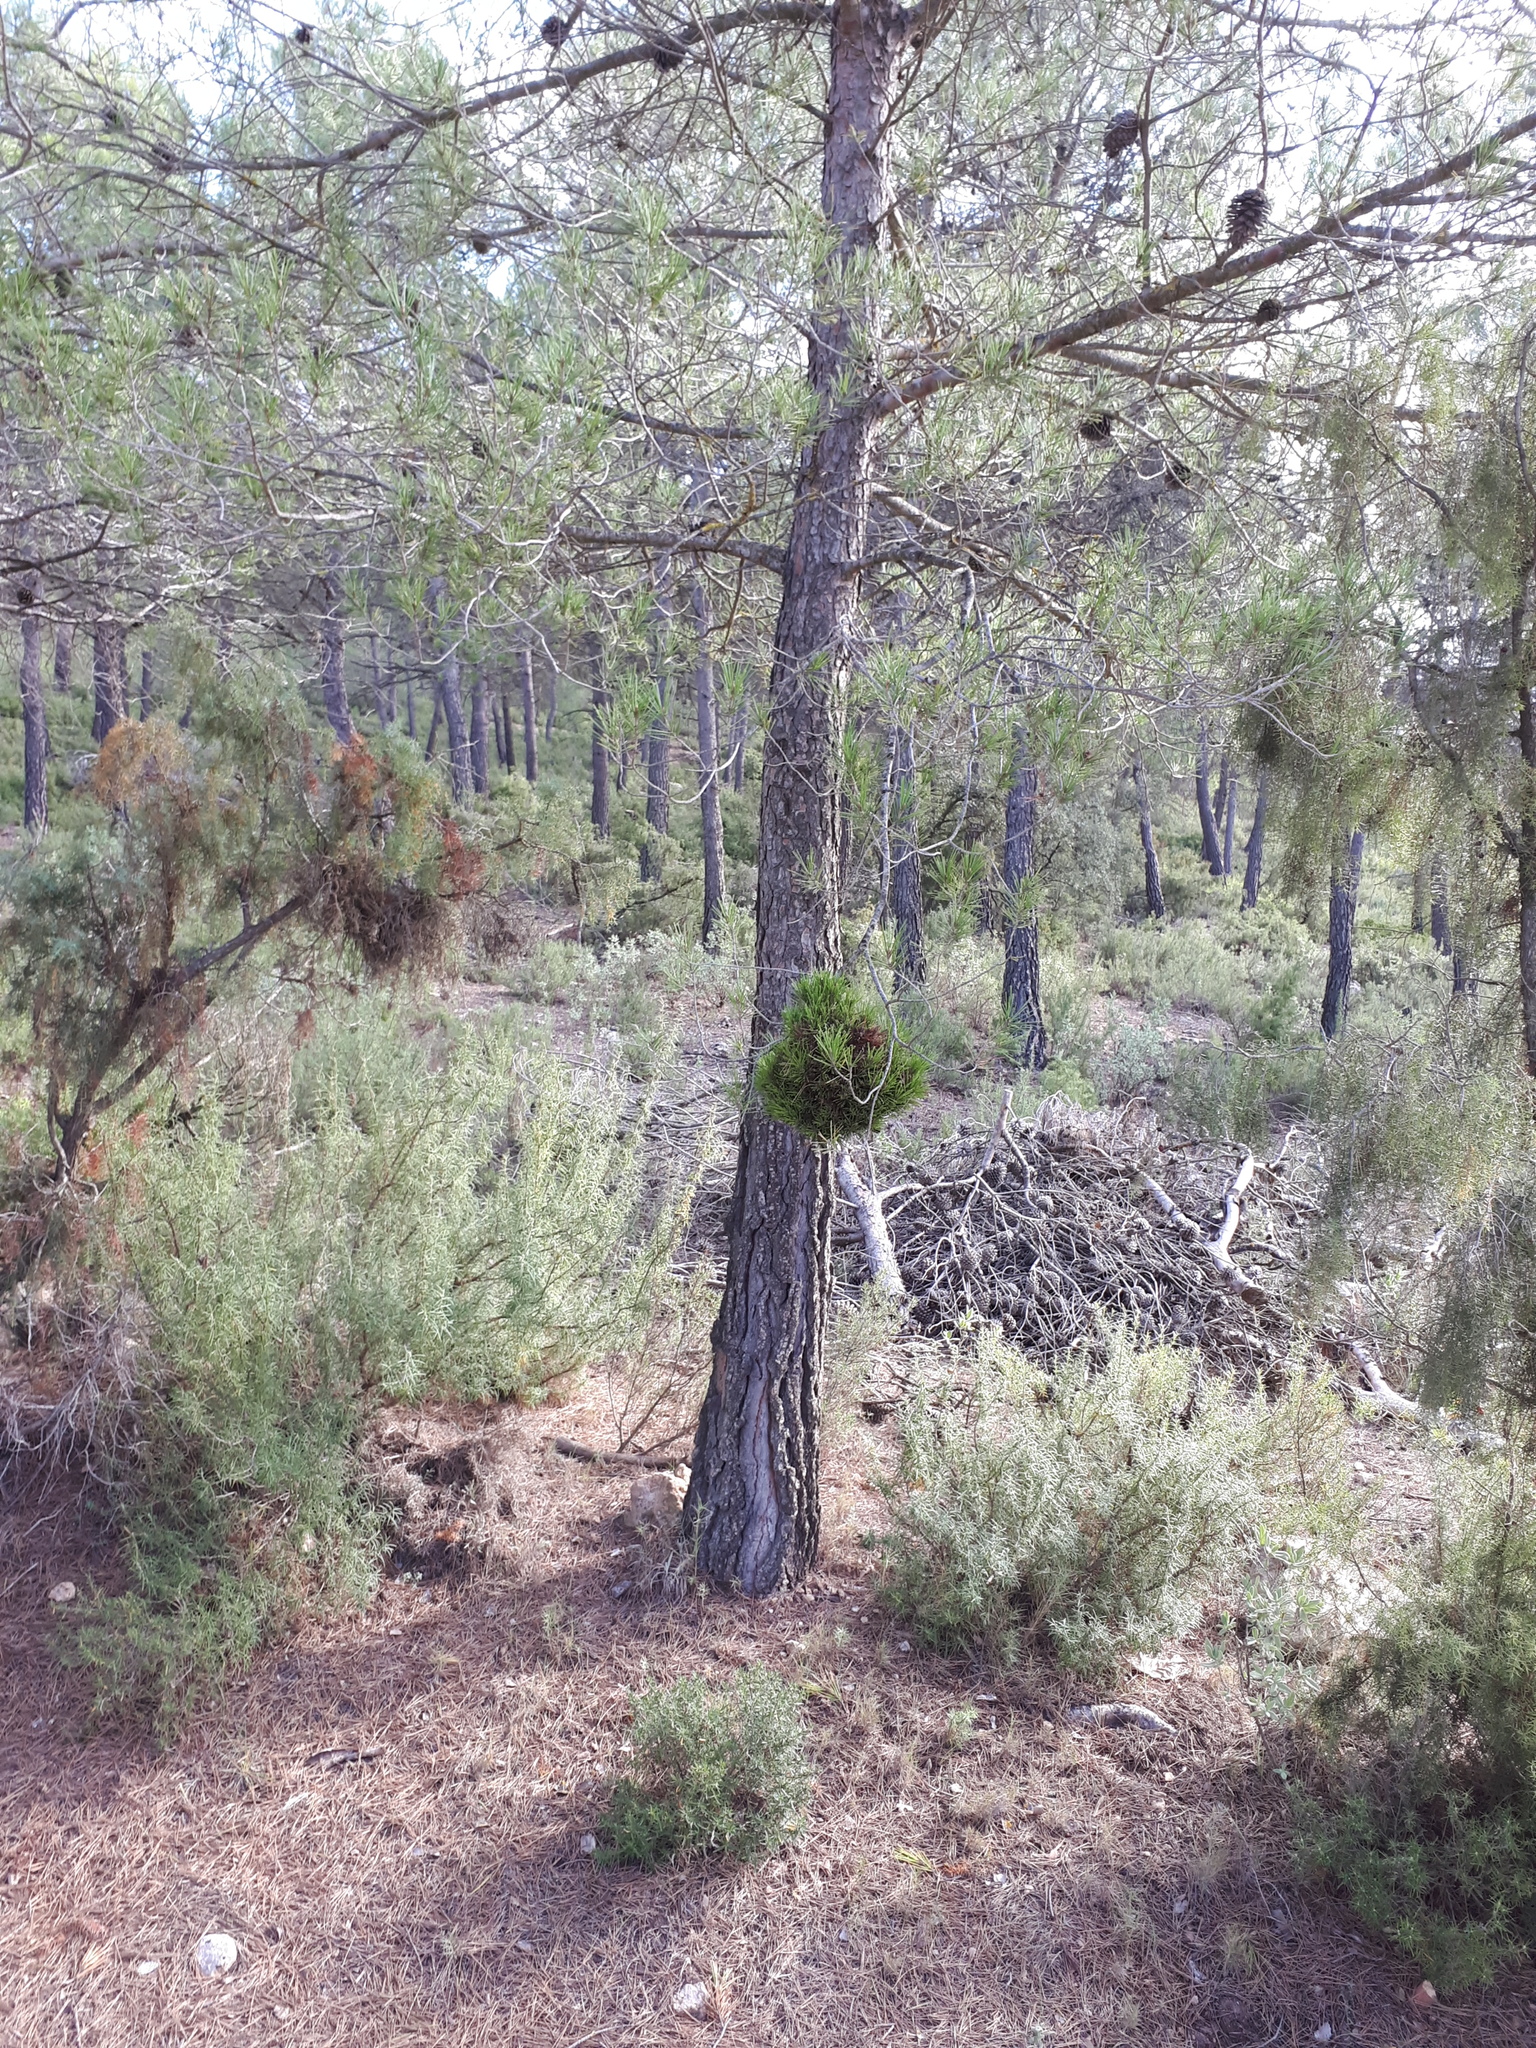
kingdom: Bacteria
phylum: Firmicutes
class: Bacilli
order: Acholeplasmatales
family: Acholeplasmataceae
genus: Phytoplasma
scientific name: Phytoplasma pini
